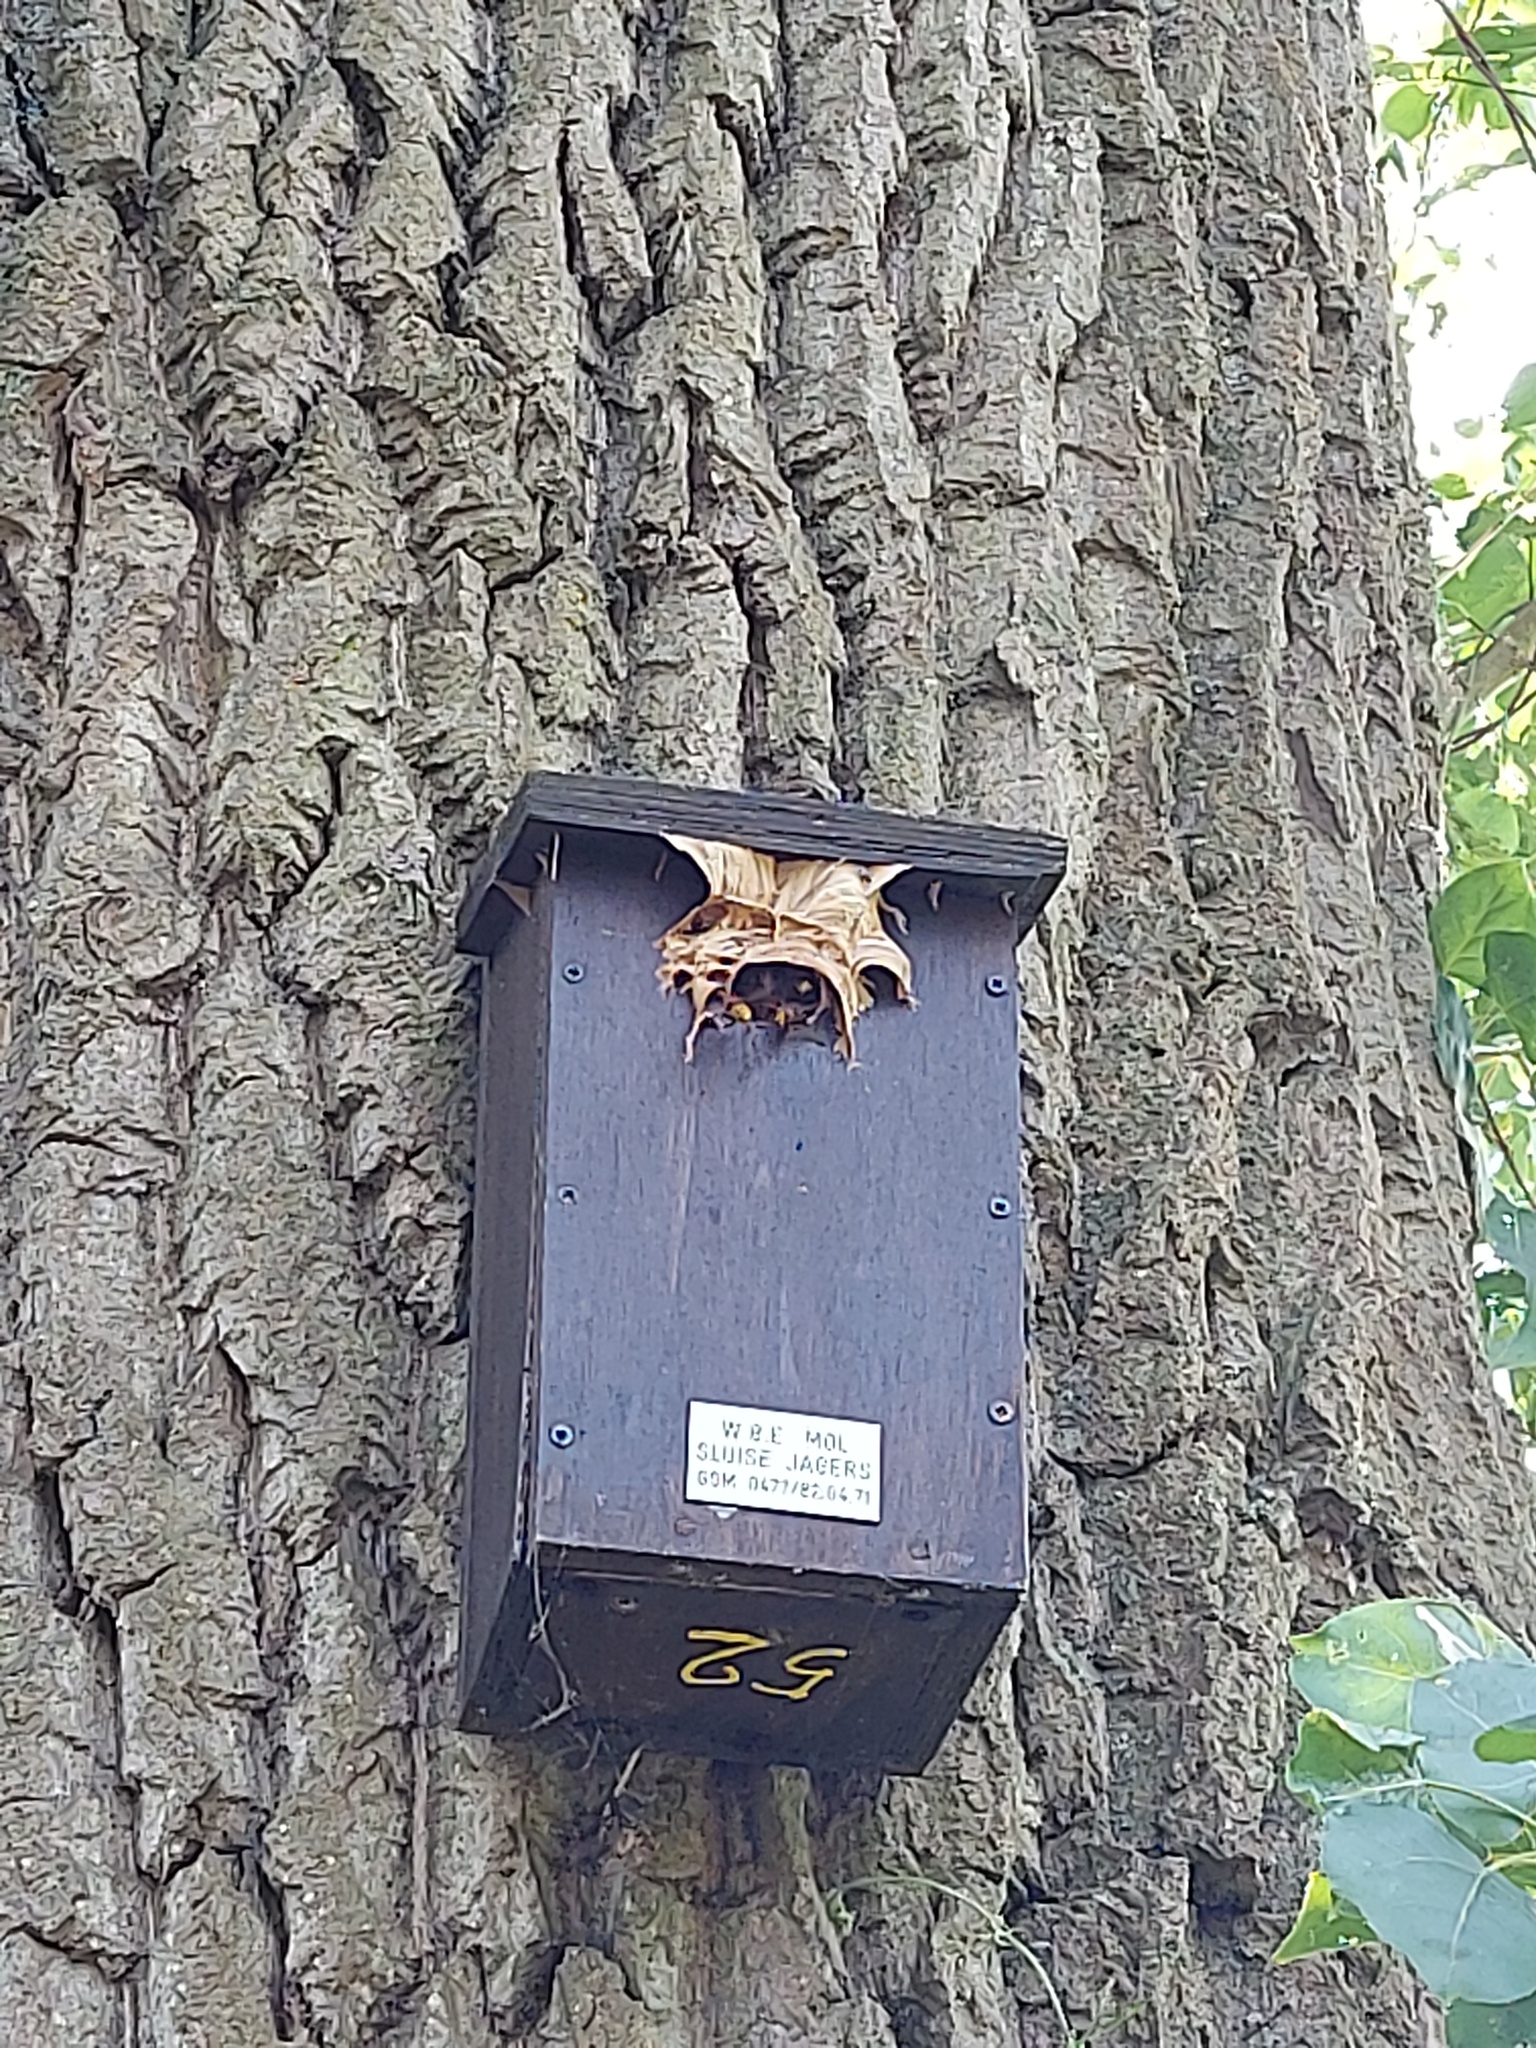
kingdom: Animalia
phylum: Arthropoda
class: Insecta
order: Hymenoptera
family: Vespidae
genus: Vespa
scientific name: Vespa crabro
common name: Hornet
